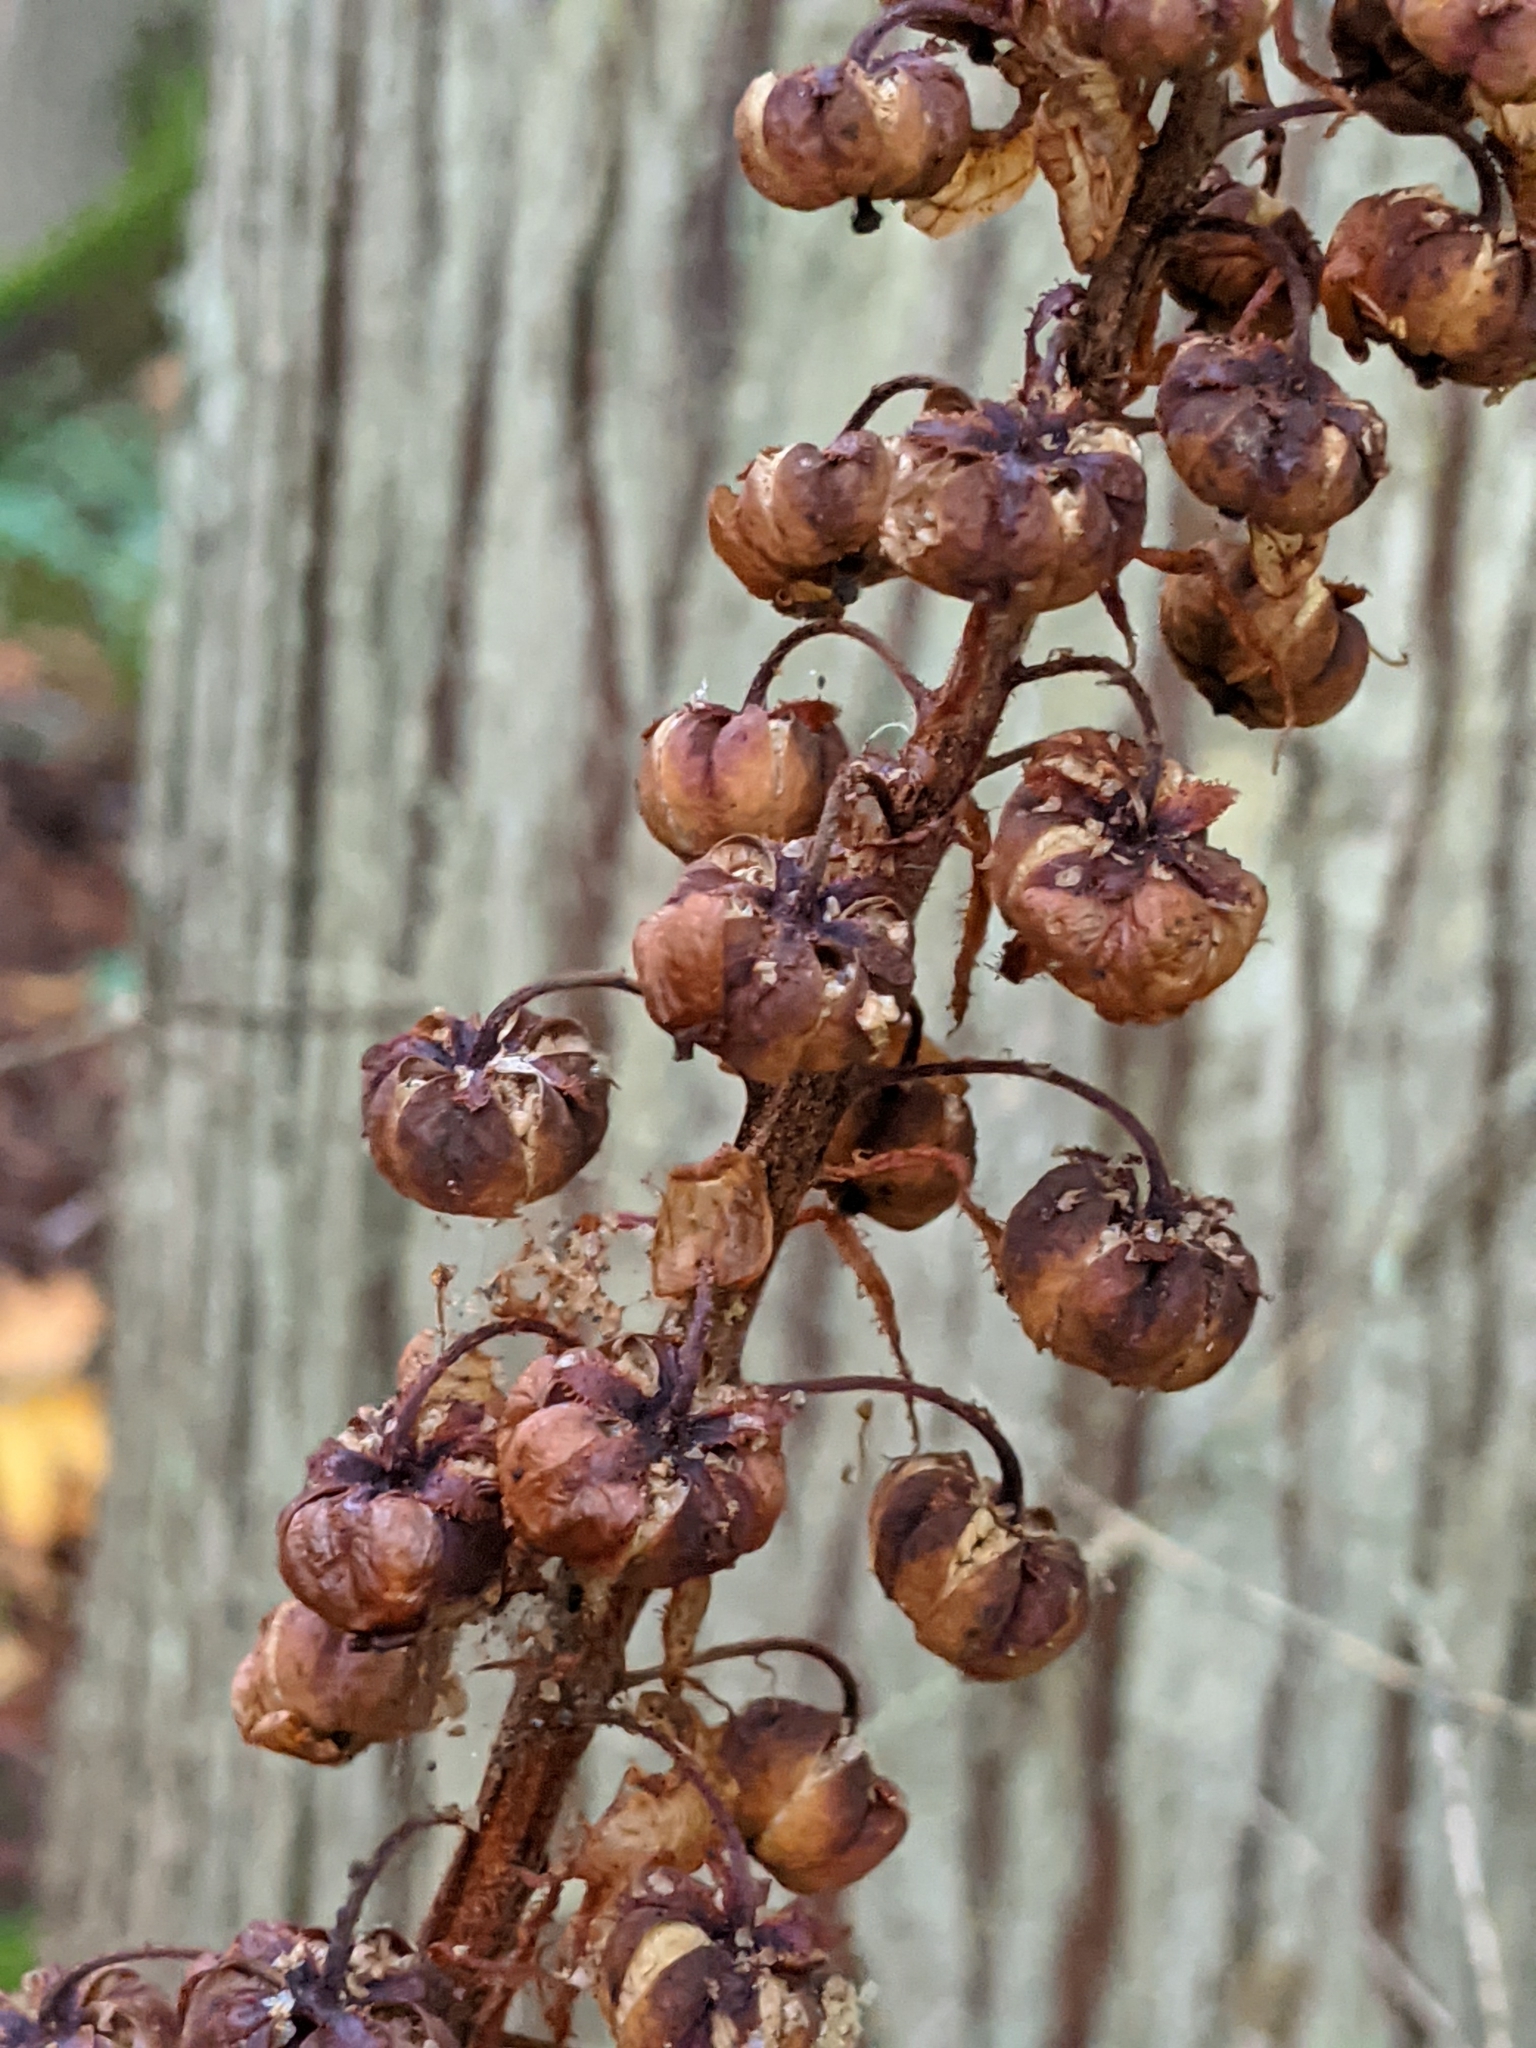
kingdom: Plantae
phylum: Tracheophyta
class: Magnoliopsida
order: Ericales
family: Ericaceae
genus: Pterospora
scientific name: Pterospora andromedea
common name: Giant bird's-nest
